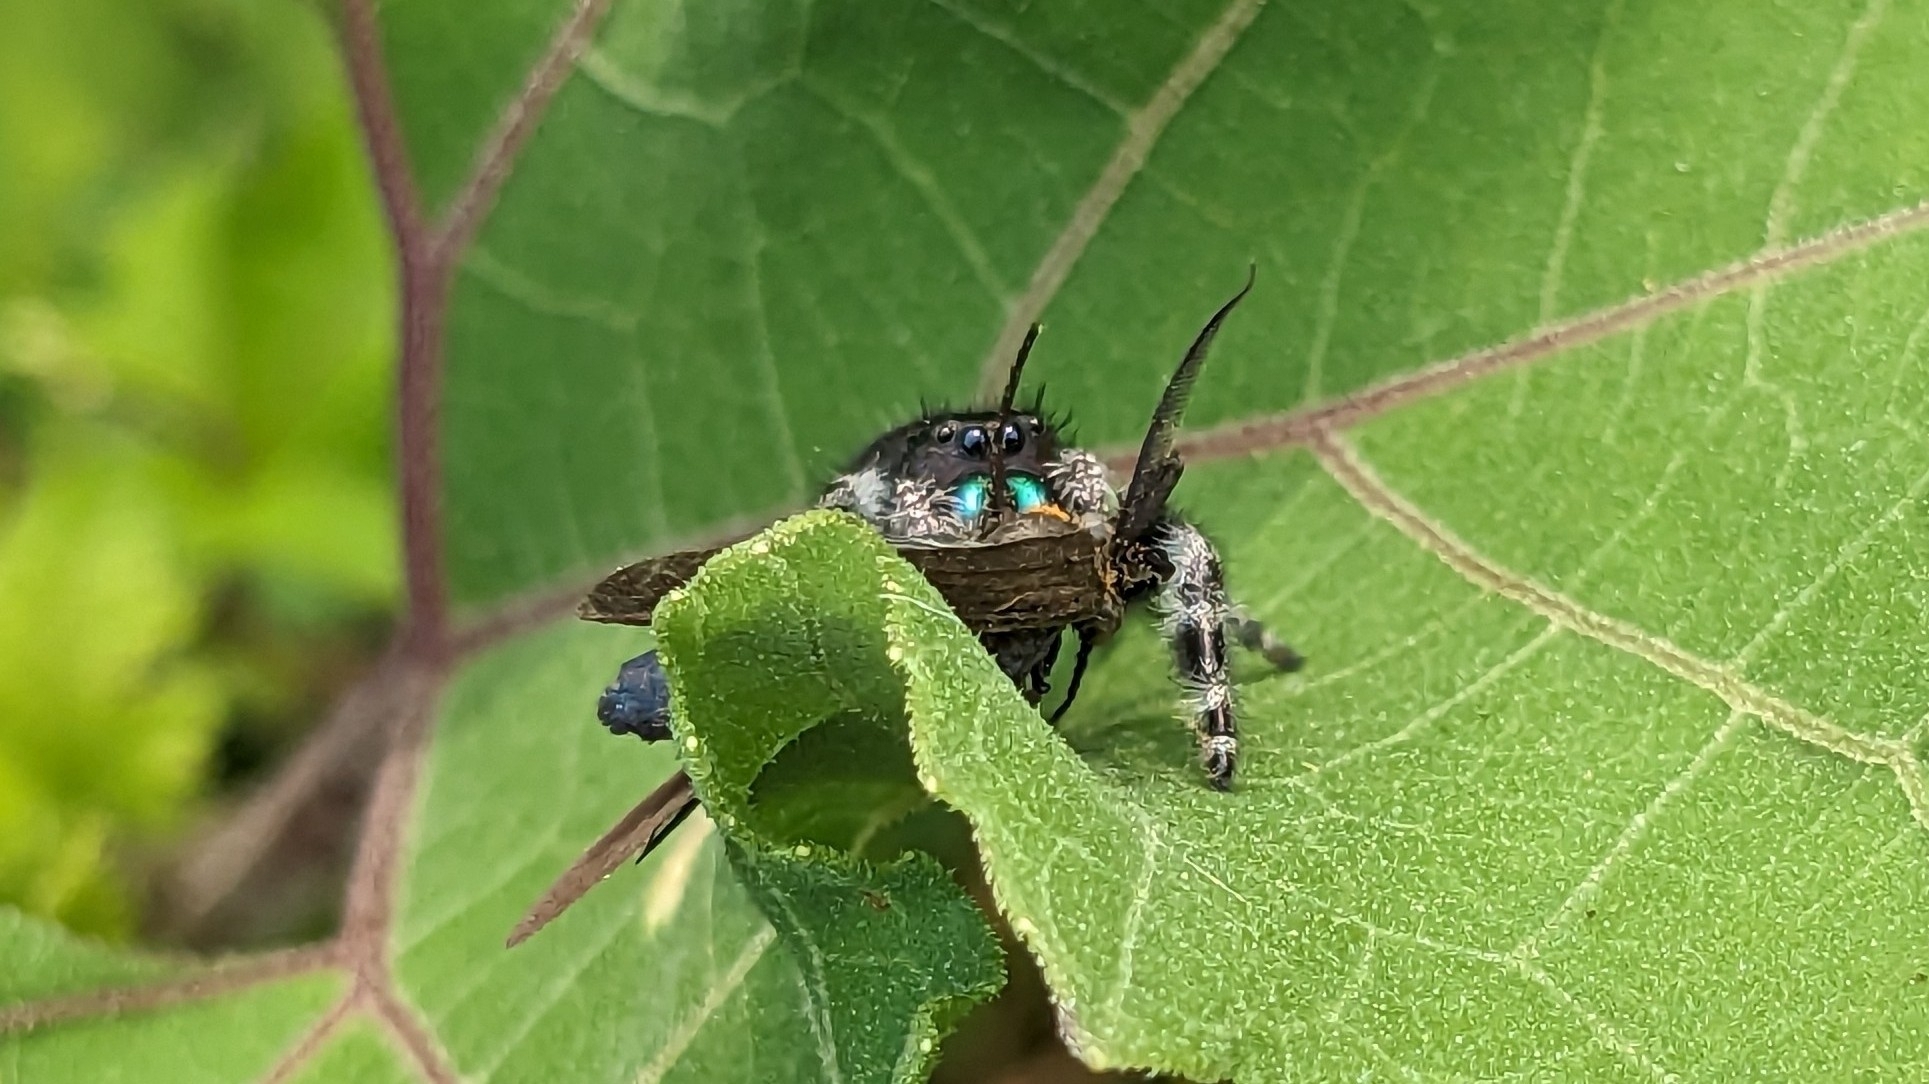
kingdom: Animalia
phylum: Arthropoda
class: Arachnida
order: Araneae
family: Salticidae
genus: Phidippus
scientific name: Phidippus audax
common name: Bold jumper
